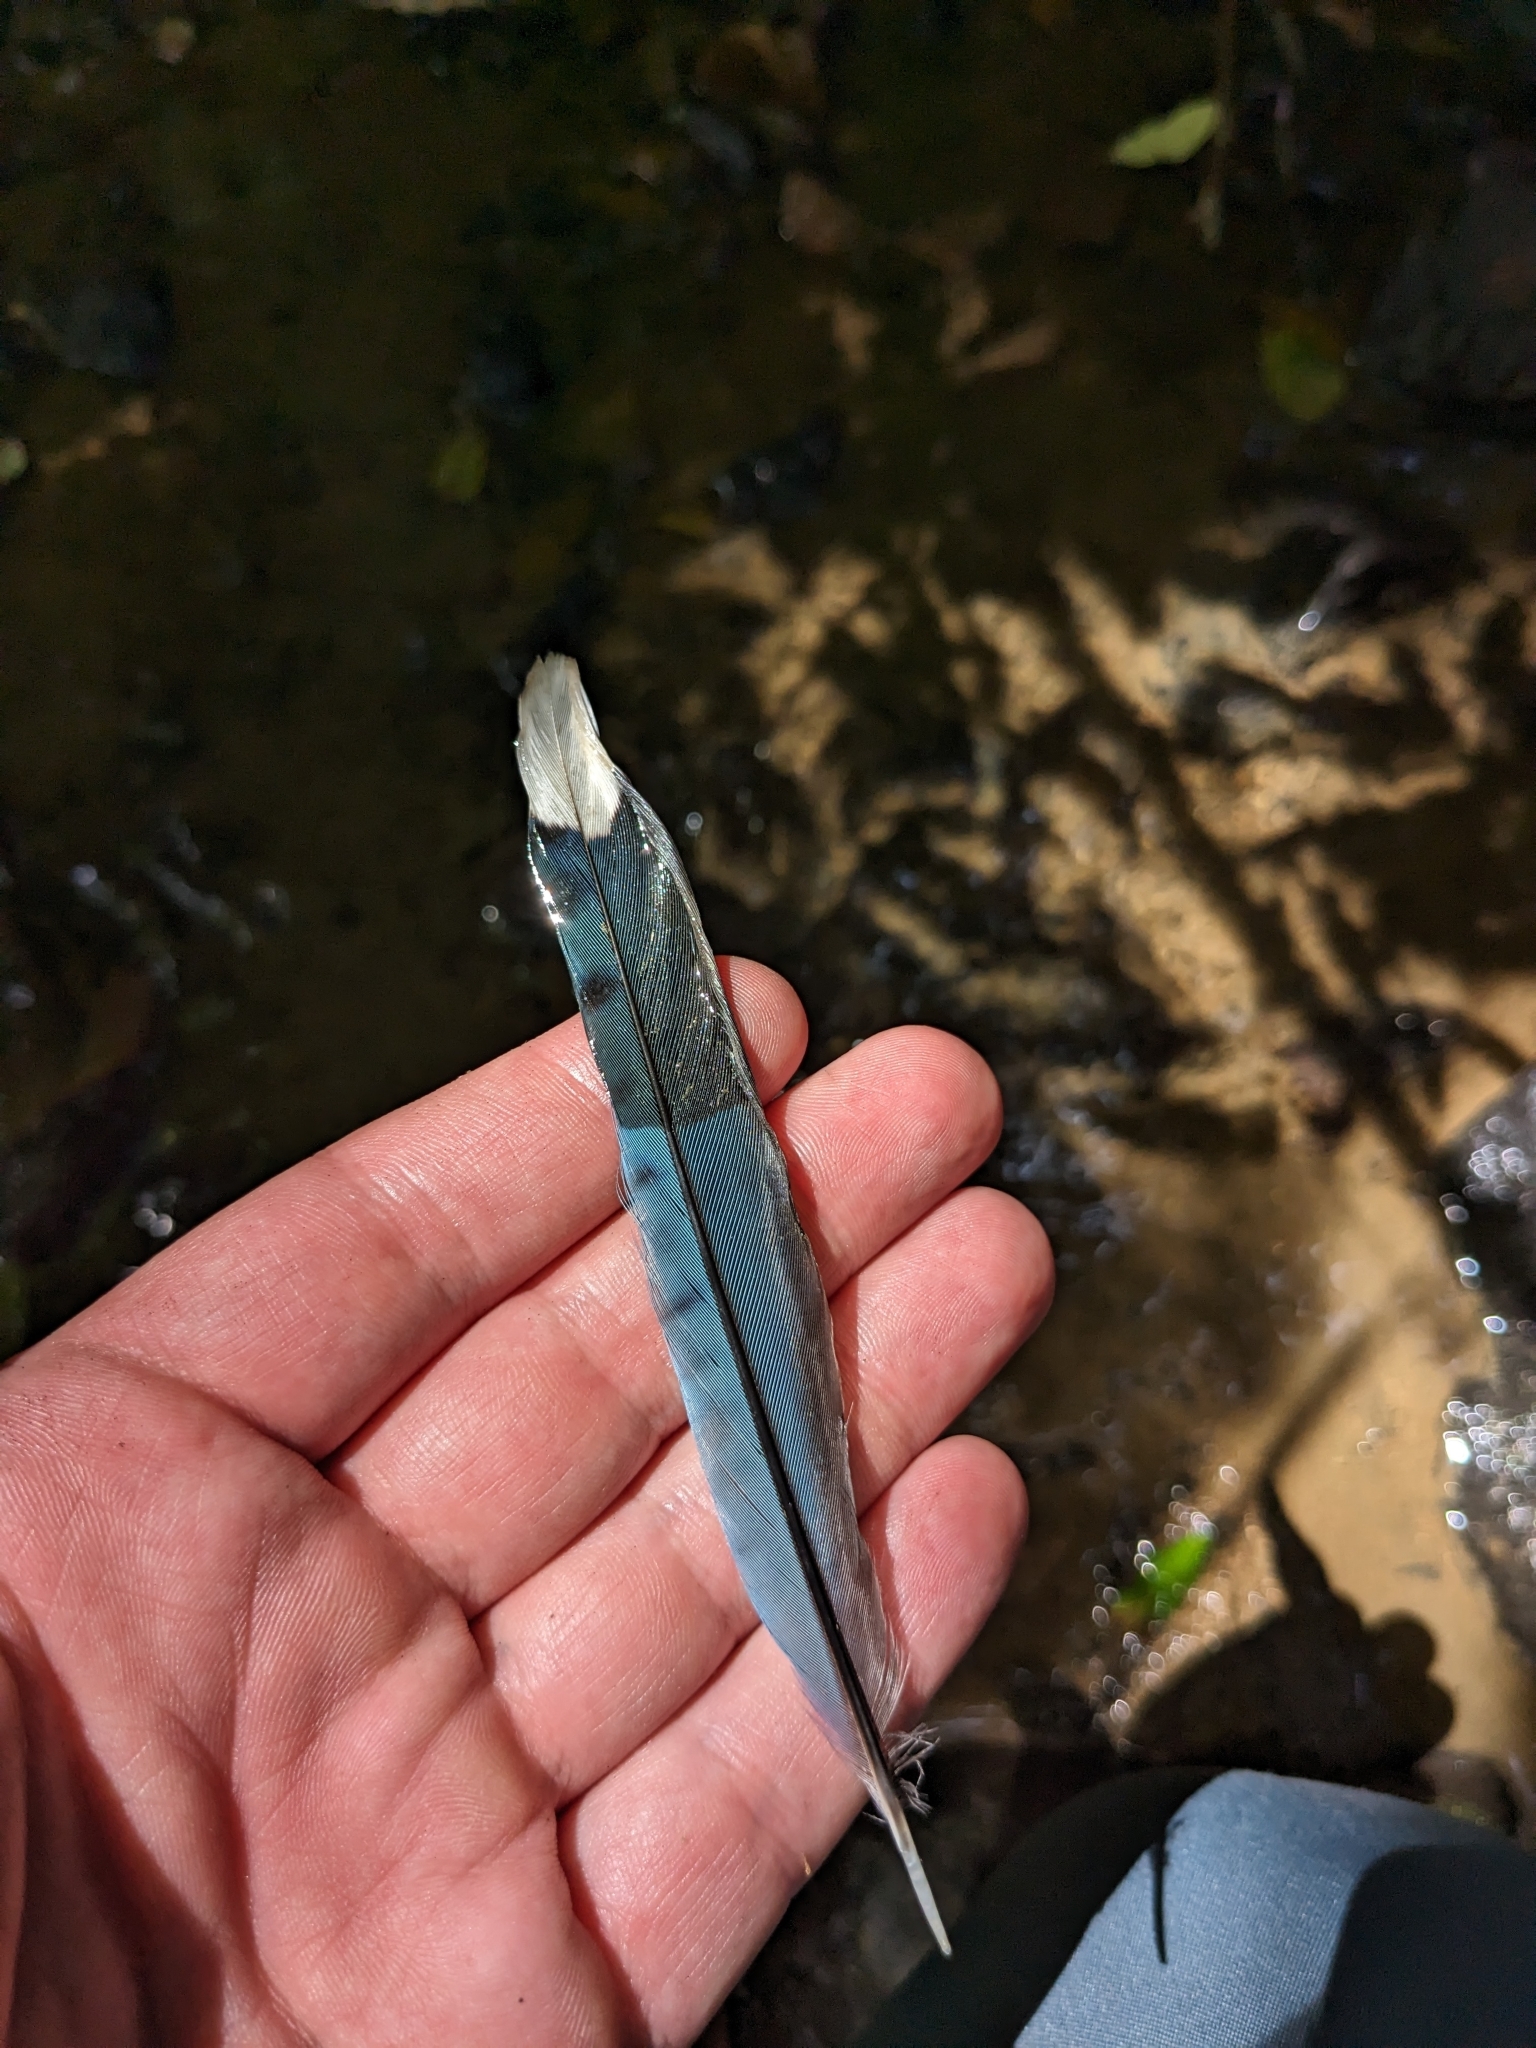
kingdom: Animalia
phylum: Chordata
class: Aves
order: Passeriformes
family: Corvidae
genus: Cyanocitta
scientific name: Cyanocitta cristata
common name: Blue jay
